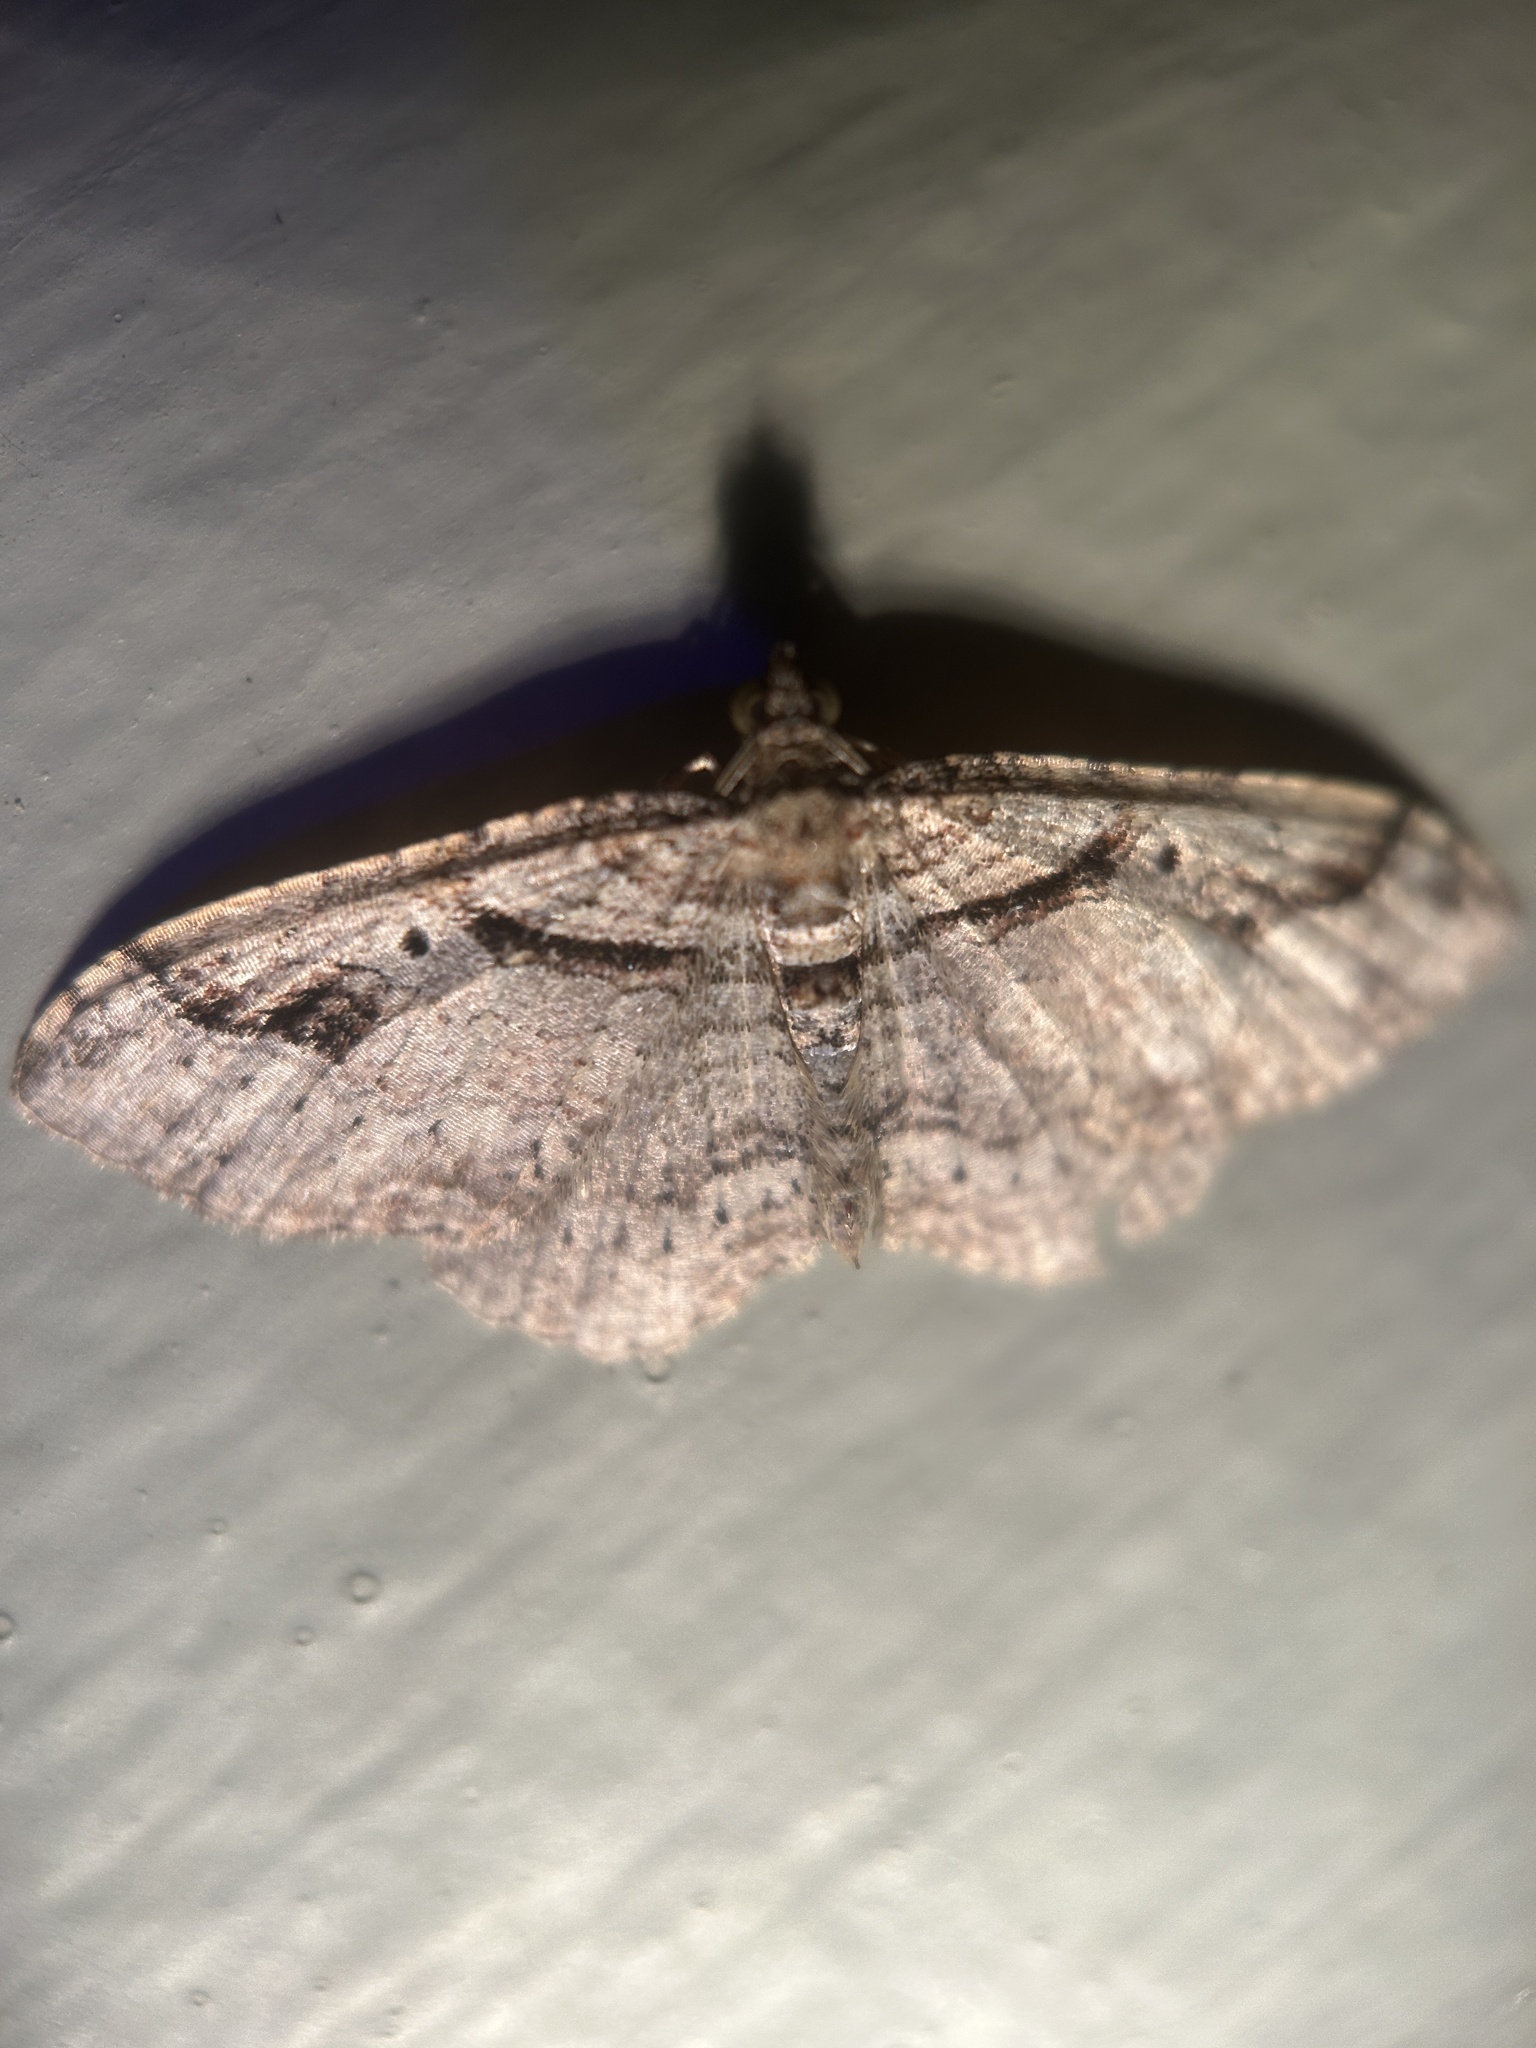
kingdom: Animalia
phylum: Arthropoda
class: Insecta
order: Lepidoptera
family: Geometridae
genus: Costaconvexa
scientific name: Costaconvexa centrostrigaria
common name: Bent-line carpet
